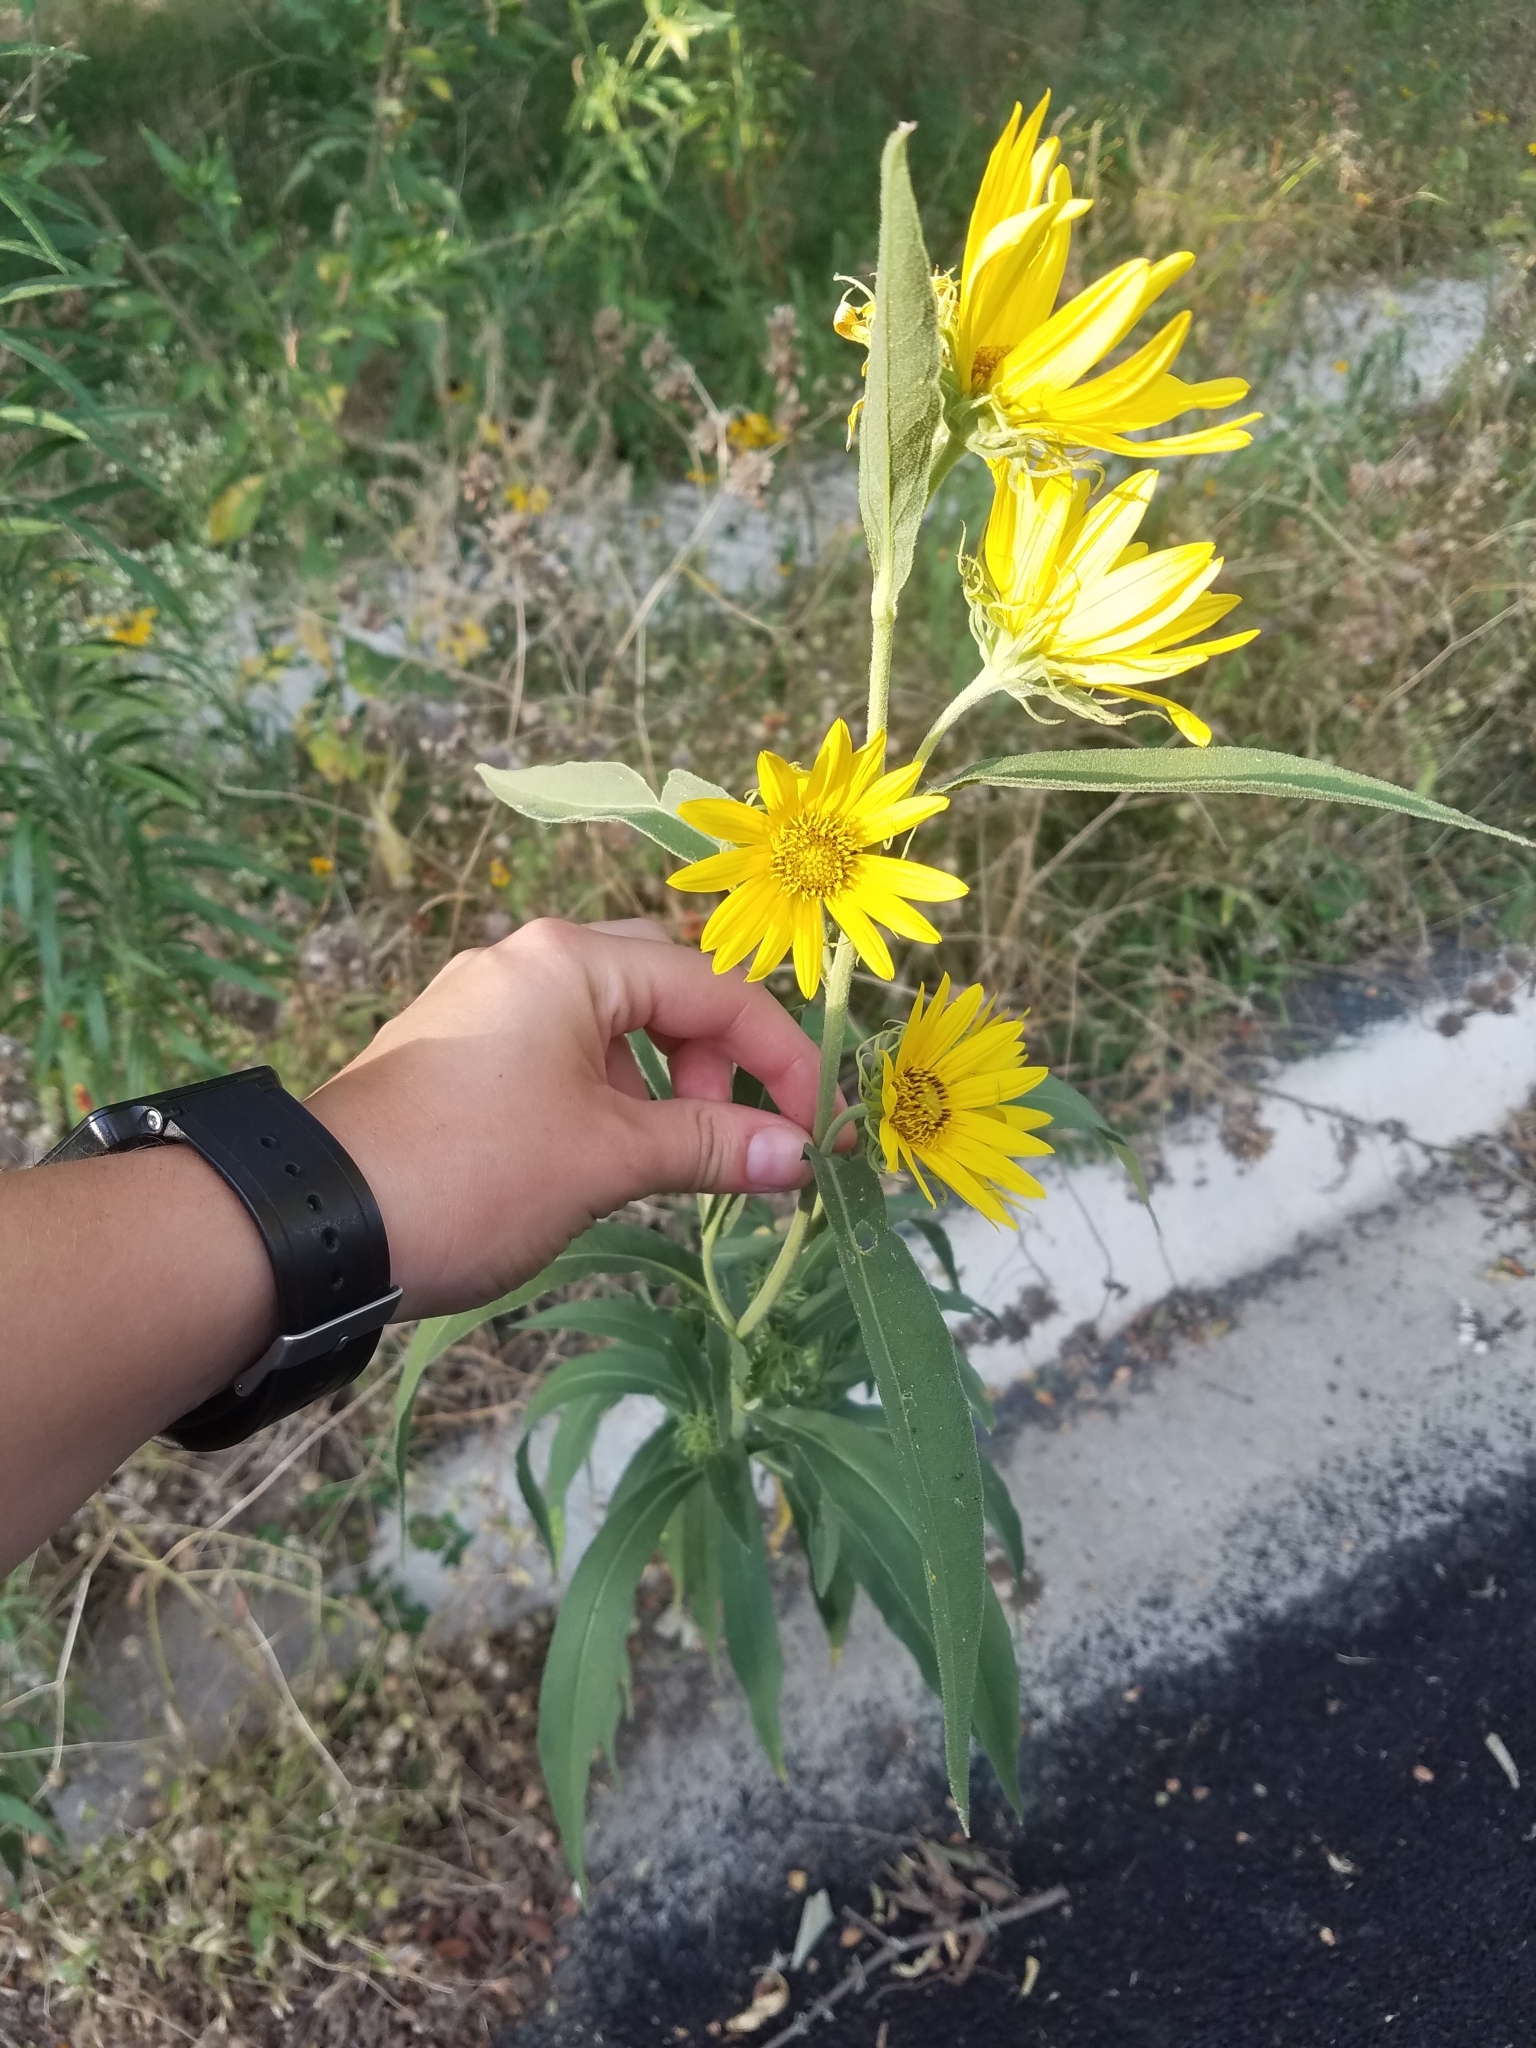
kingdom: Plantae
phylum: Tracheophyta
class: Magnoliopsida
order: Asterales
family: Asteraceae
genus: Helianthus
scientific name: Helianthus maximiliani
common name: Maximilian's sunflower
